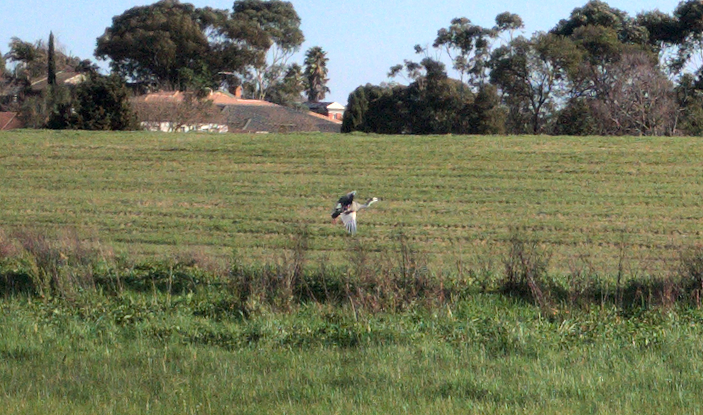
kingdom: Animalia
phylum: Chordata
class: Aves
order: Pelecaniformes
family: Ardeidae
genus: Egretta
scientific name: Egretta novaehollandiae
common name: White-faced heron
